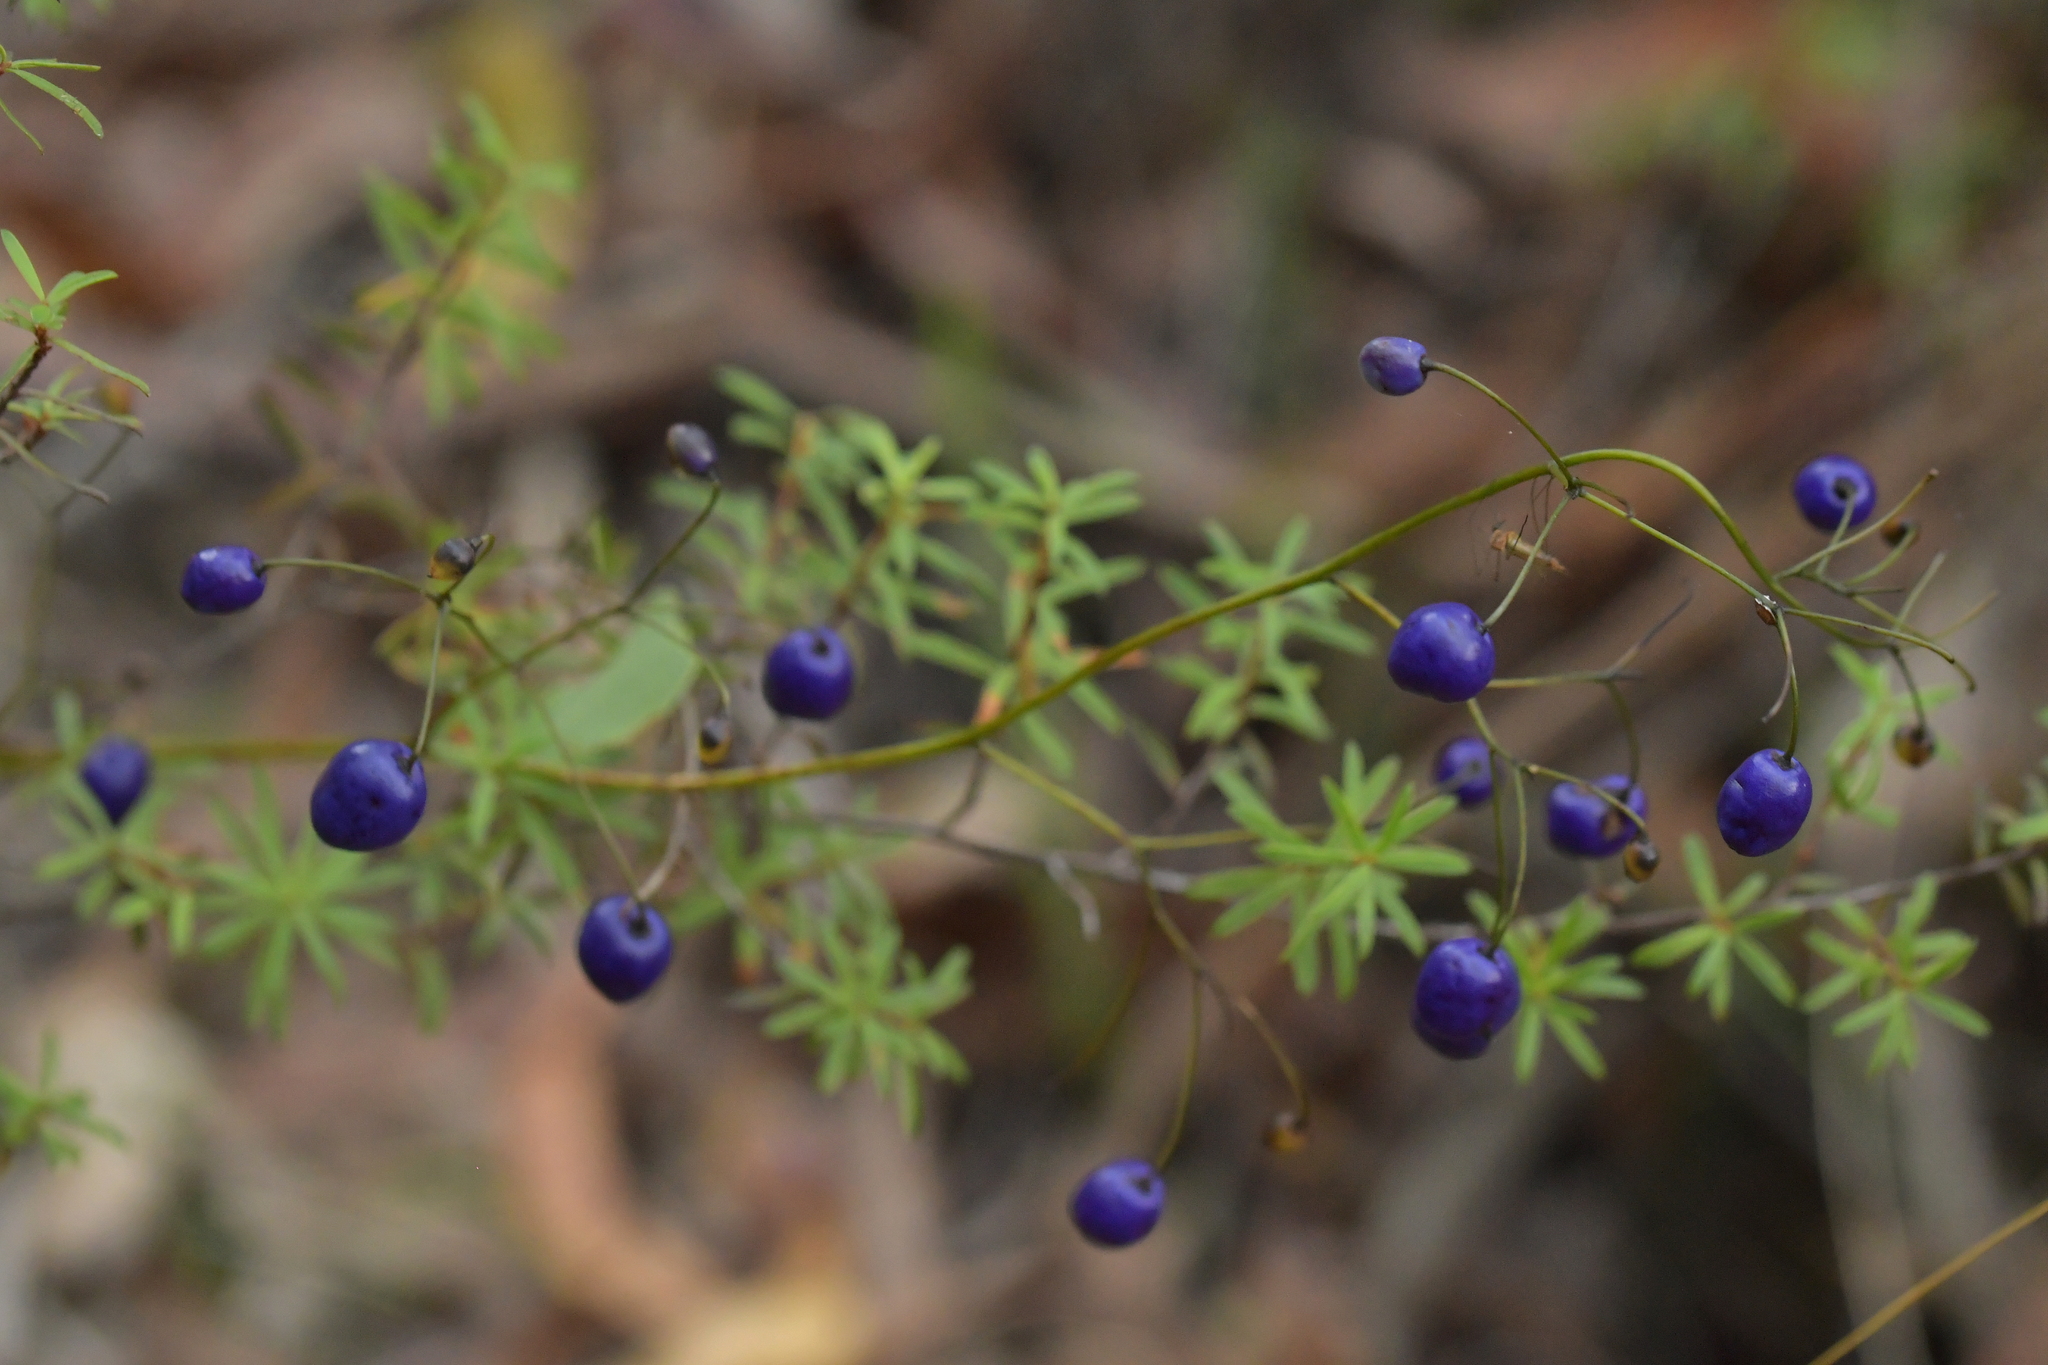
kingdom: Plantae
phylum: Tracheophyta
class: Liliopsida
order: Asparagales
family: Asphodelaceae
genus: Dianella
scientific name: Dianella nigra
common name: New zealand-blueberry
